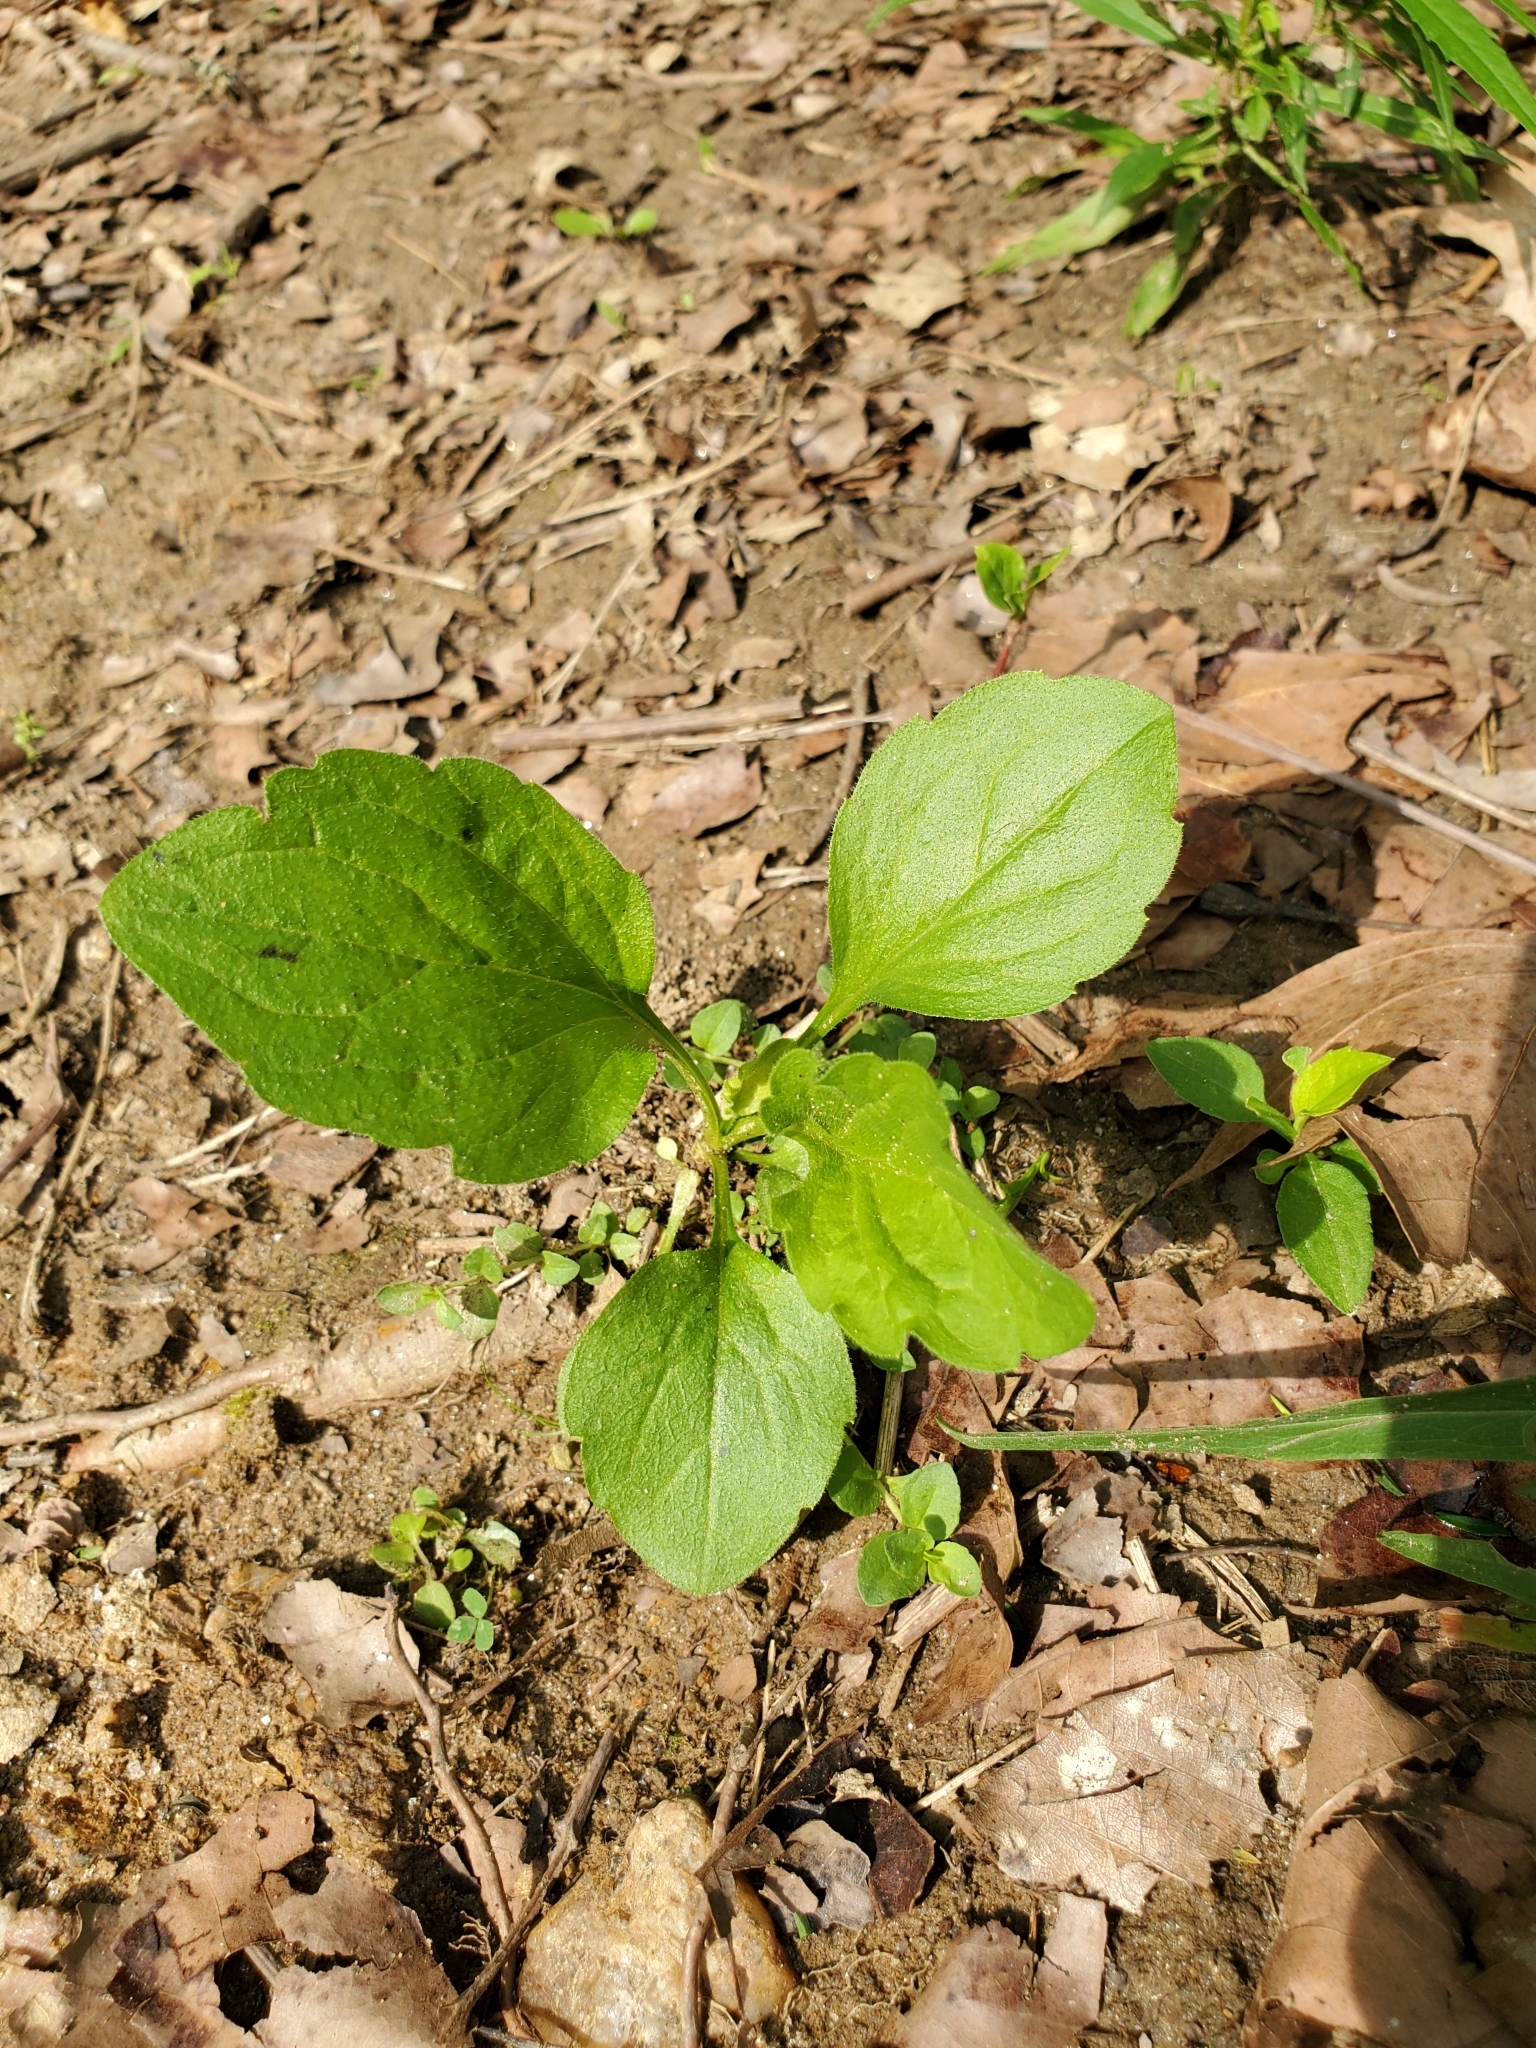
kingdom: Plantae
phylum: Tracheophyta
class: Magnoliopsida
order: Asterales
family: Asteraceae
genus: Erigeron
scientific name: Erigeron annuus
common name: Tall fleabane
